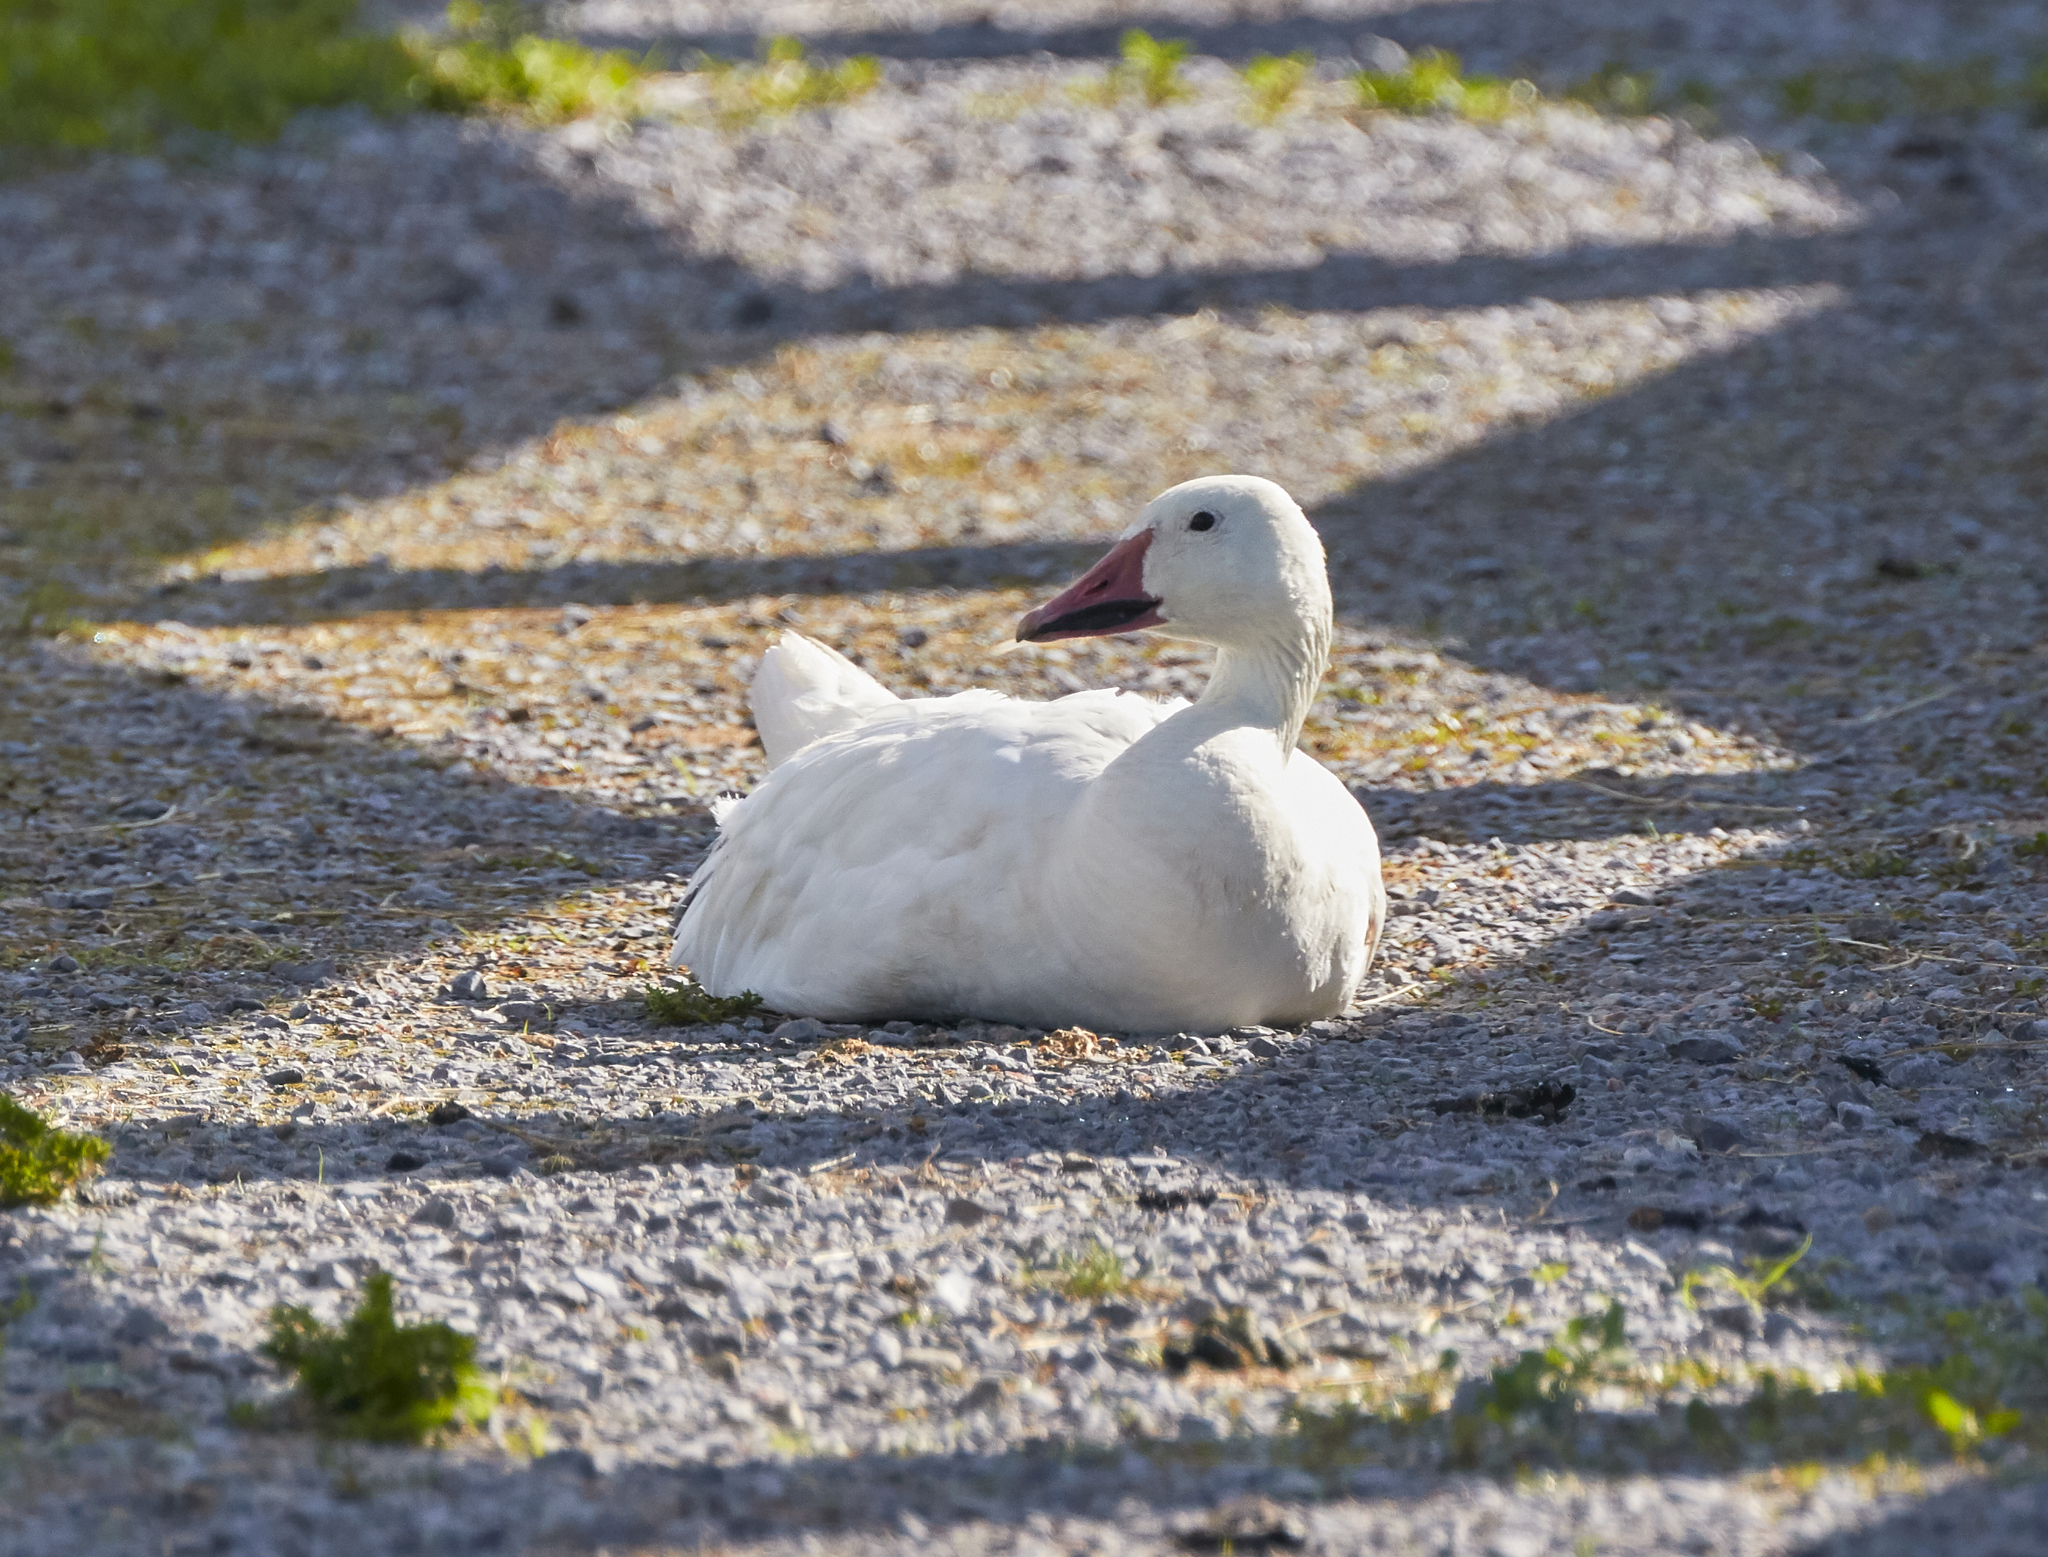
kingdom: Animalia
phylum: Chordata
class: Aves
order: Anseriformes
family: Anatidae
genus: Anser
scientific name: Anser caerulescens
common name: Snow goose
